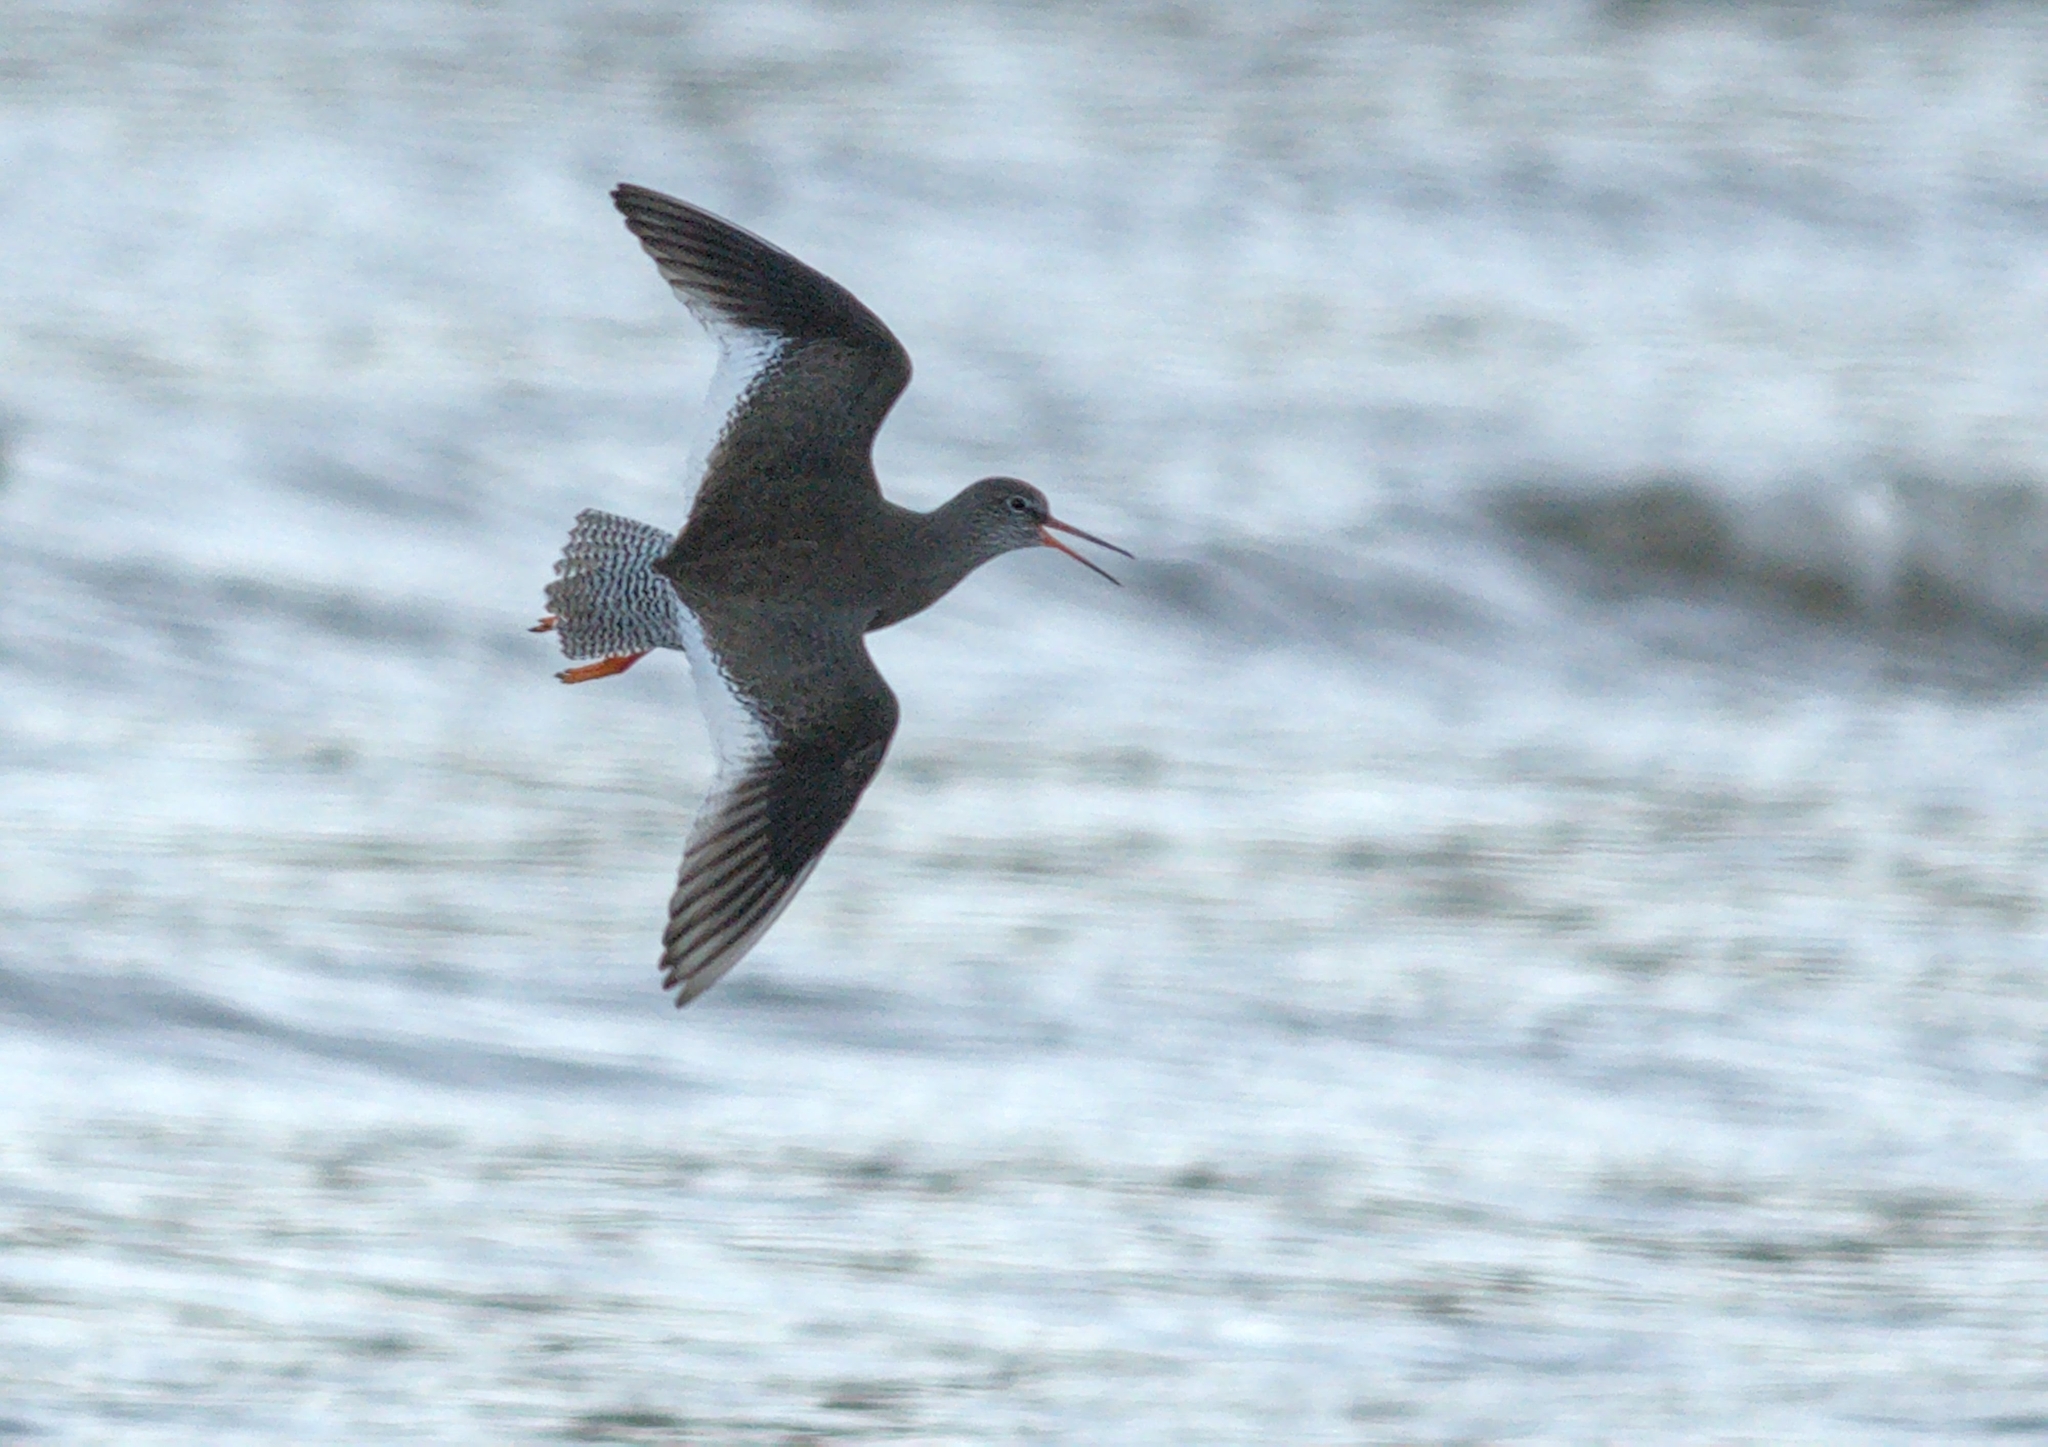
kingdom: Animalia
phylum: Chordata
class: Aves
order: Charadriiformes
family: Scolopacidae
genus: Tringa
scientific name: Tringa totanus
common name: Common redshank
